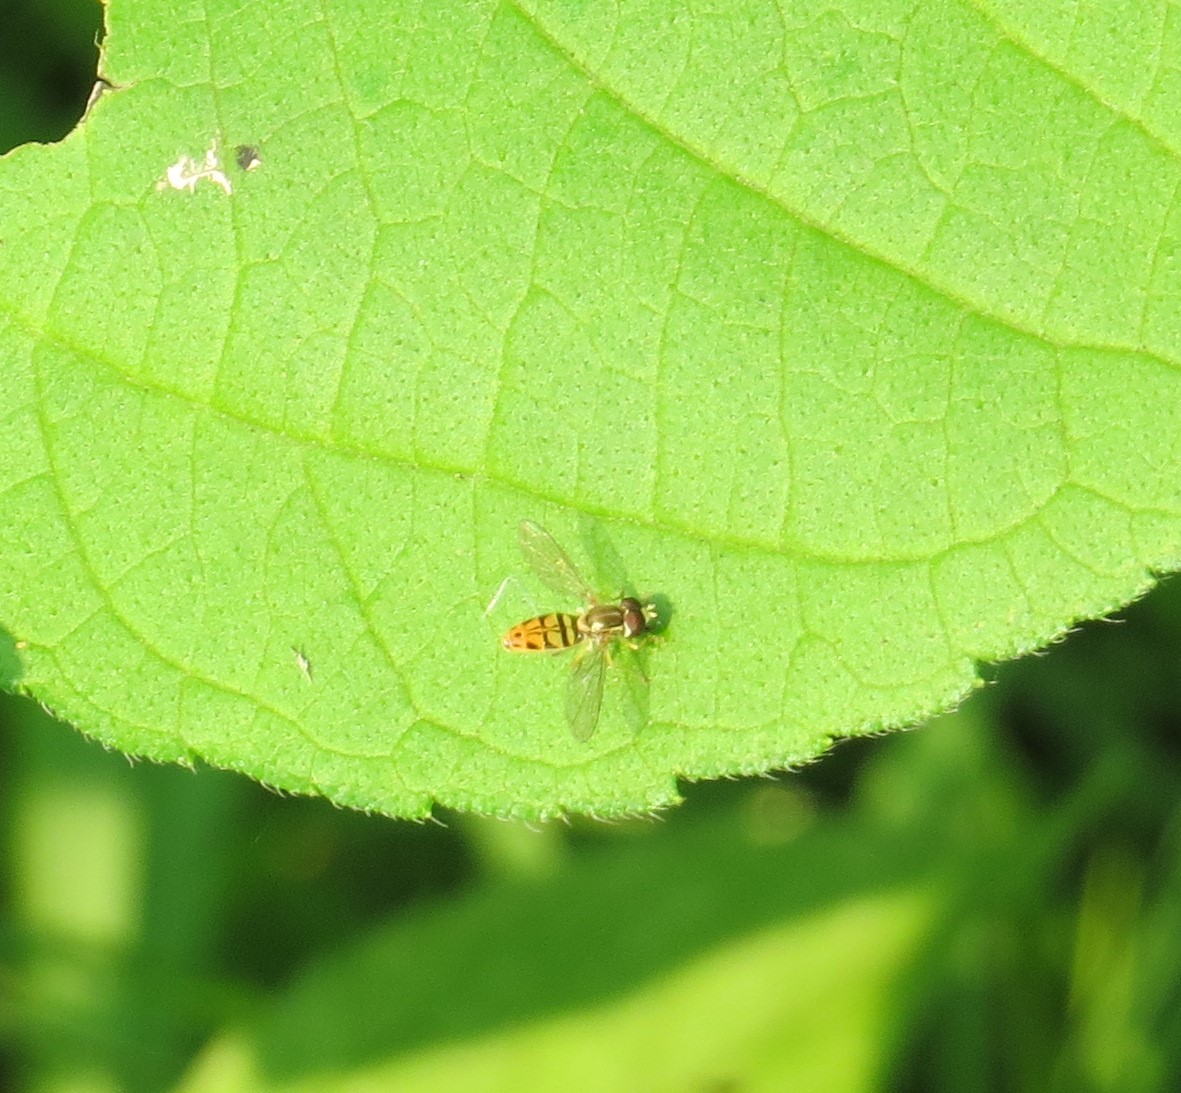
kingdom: Animalia
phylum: Arthropoda
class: Insecta
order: Diptera
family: Syrphidae
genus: Toxomerus
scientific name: Toxomerus marginatus
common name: Syrphid fly
